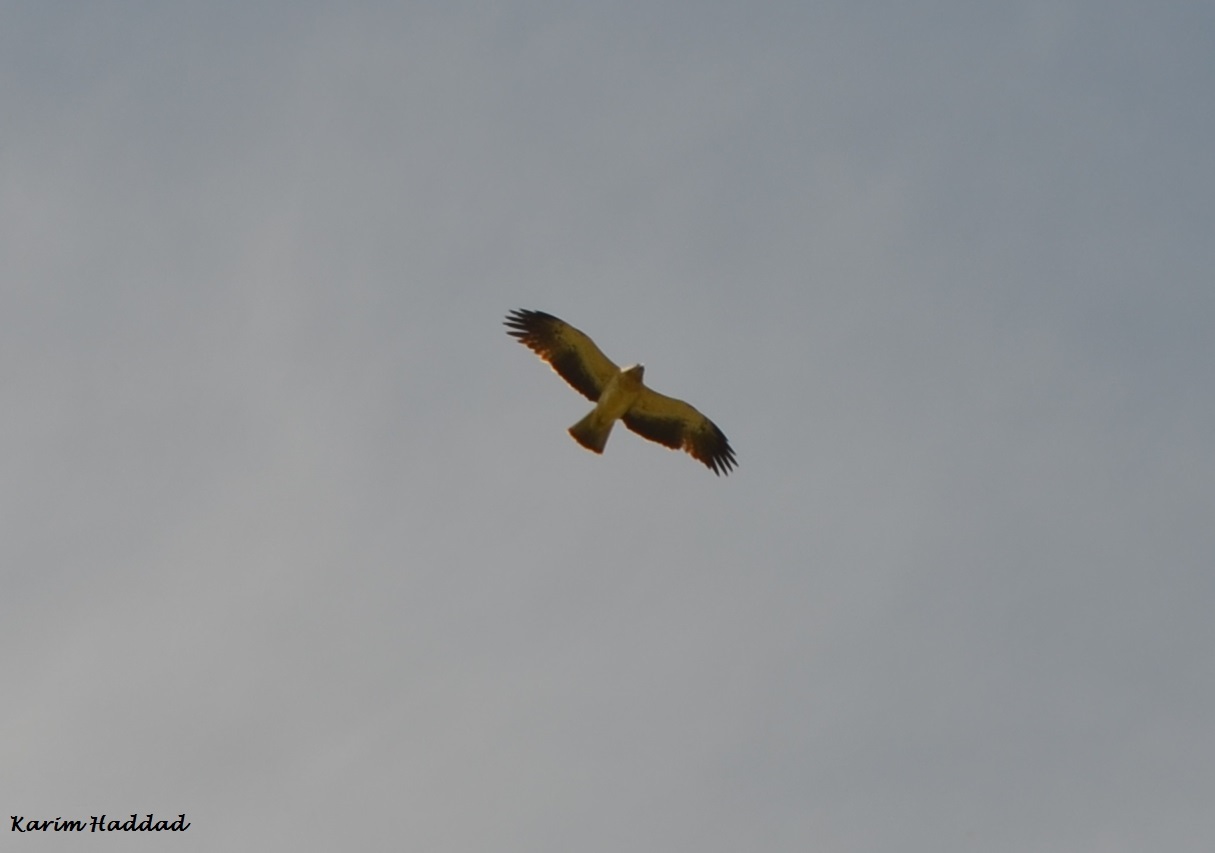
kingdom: Animalia
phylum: Chordata
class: Aves
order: Accipitriformes
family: Accipitridae
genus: Hieraaetus
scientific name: Hieraaetus pennatus
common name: Booted eagle
